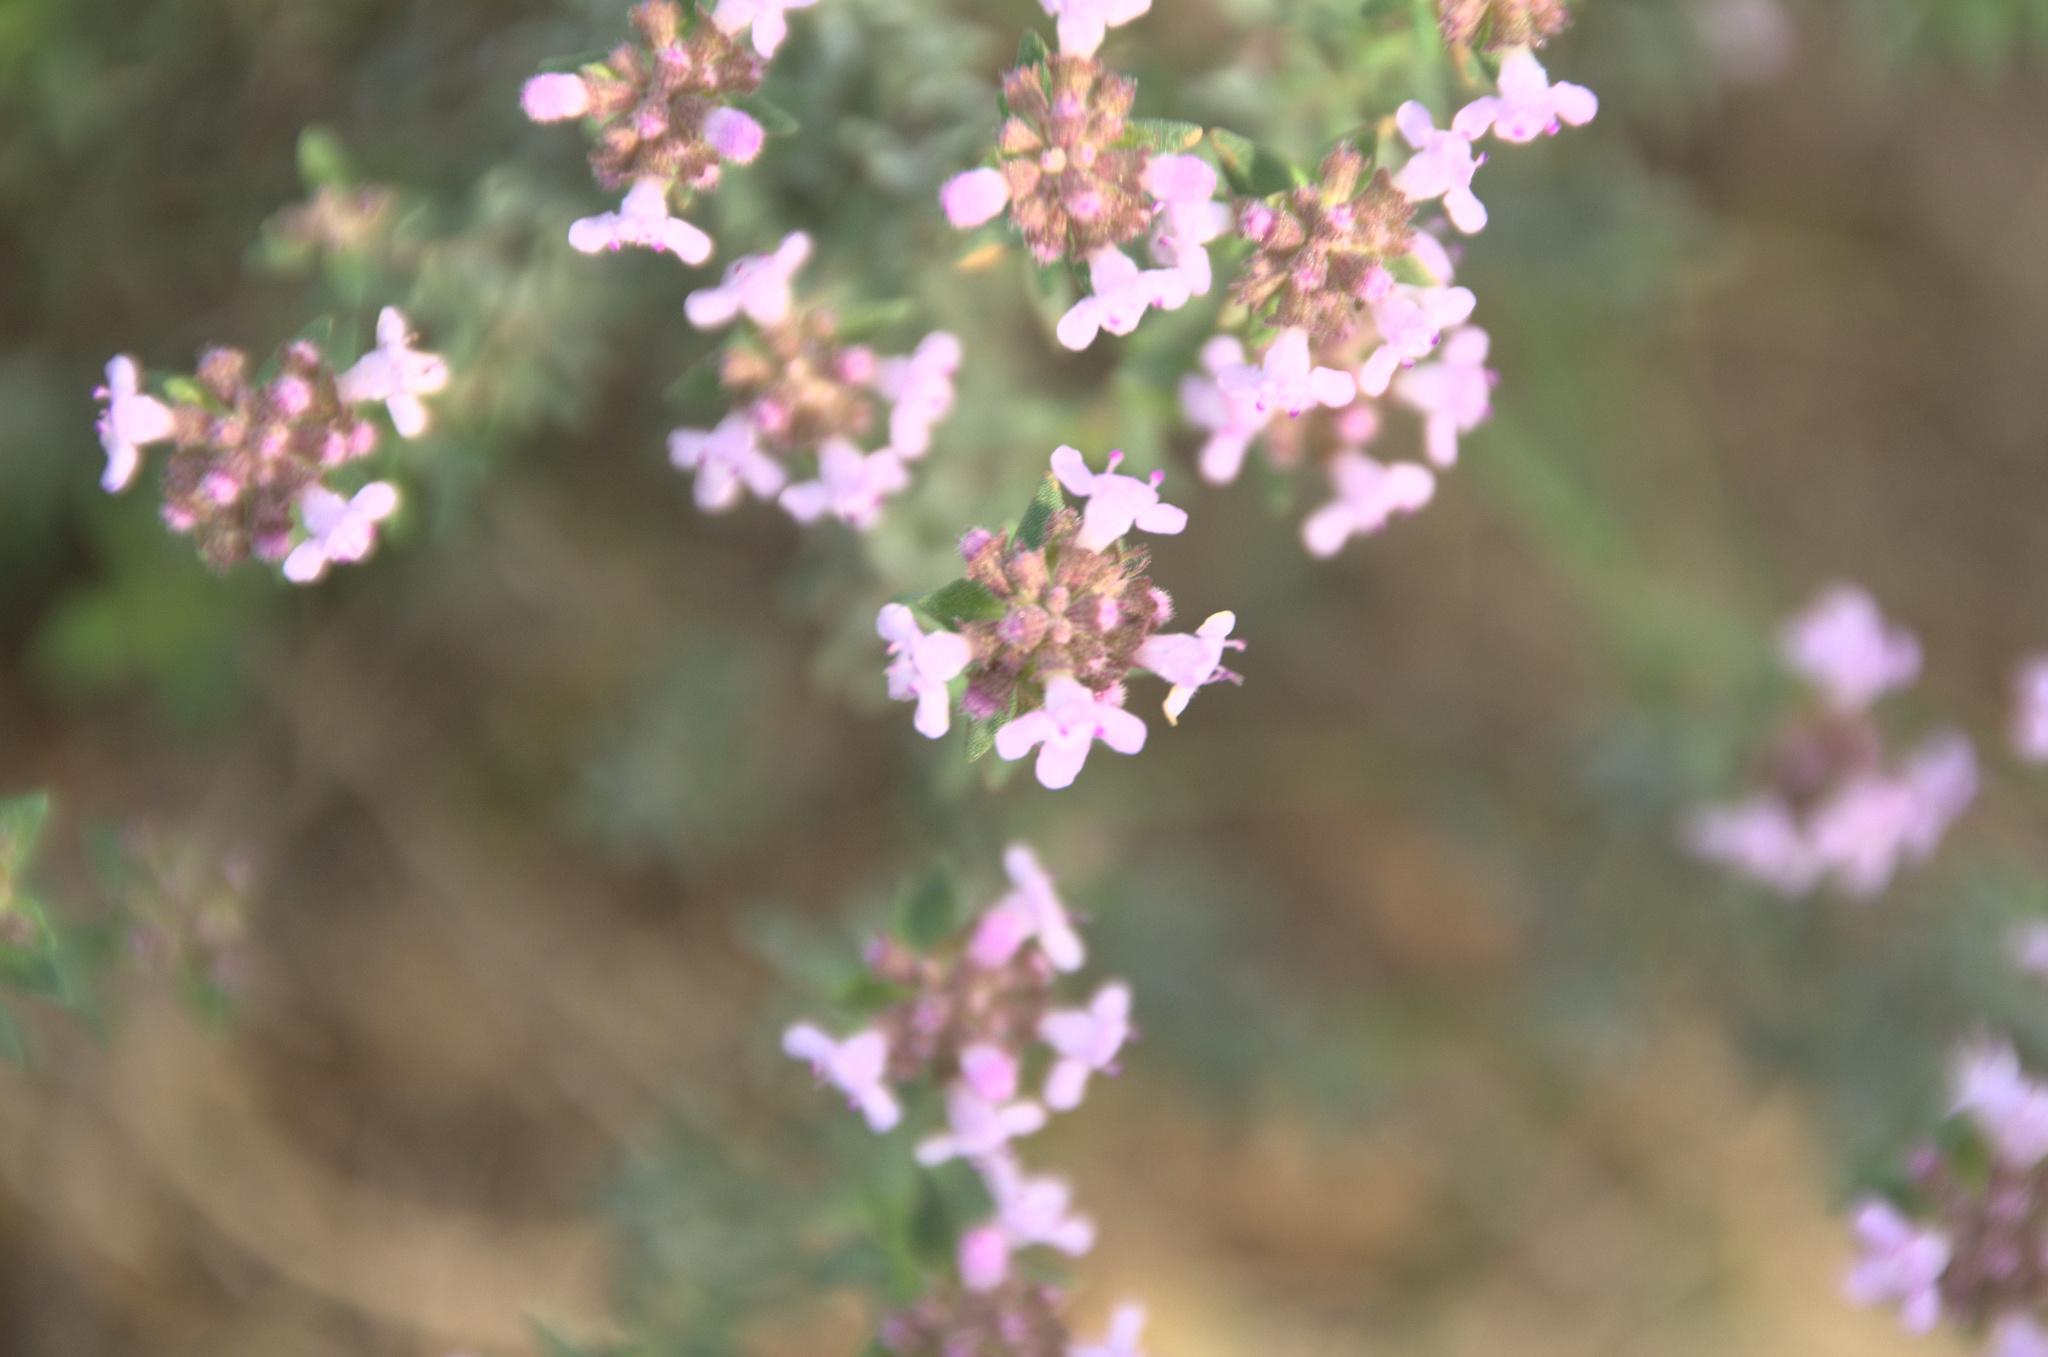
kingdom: Plantae
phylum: Tracheophyta
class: Magnoliopsida
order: Lamiales
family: Lamiaceae
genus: Thymus
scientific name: Thymus vulgaris
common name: Garden thyme
